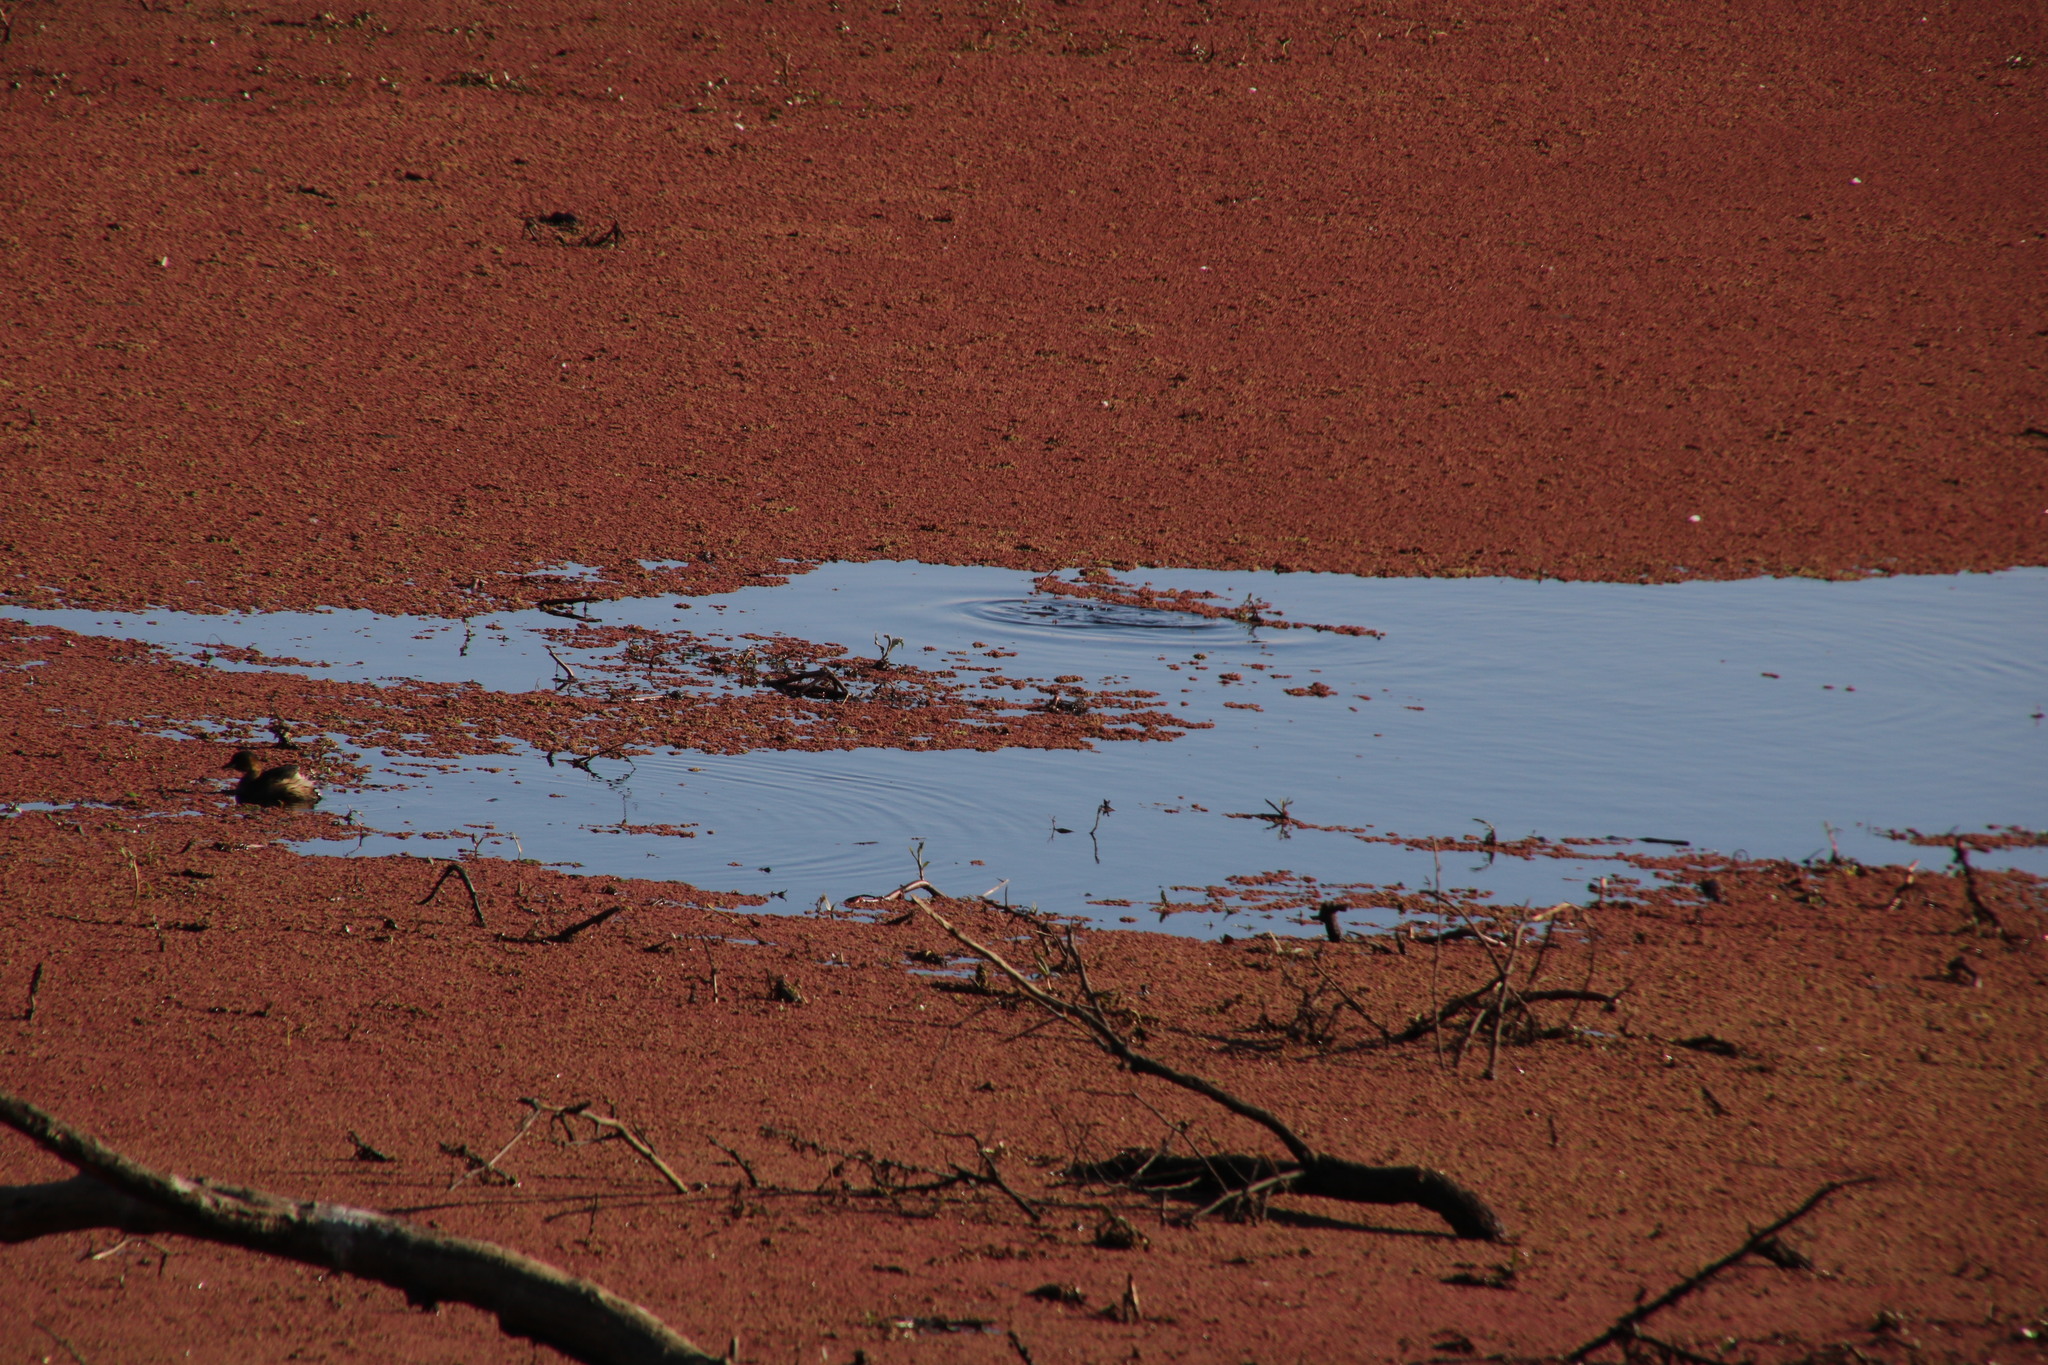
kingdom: Plantae
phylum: Tracheophyta
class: Polypodiopsida
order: Salviniales
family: Salviniaceae
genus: Azolla
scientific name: Azolla filiculoides
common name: Water fern
